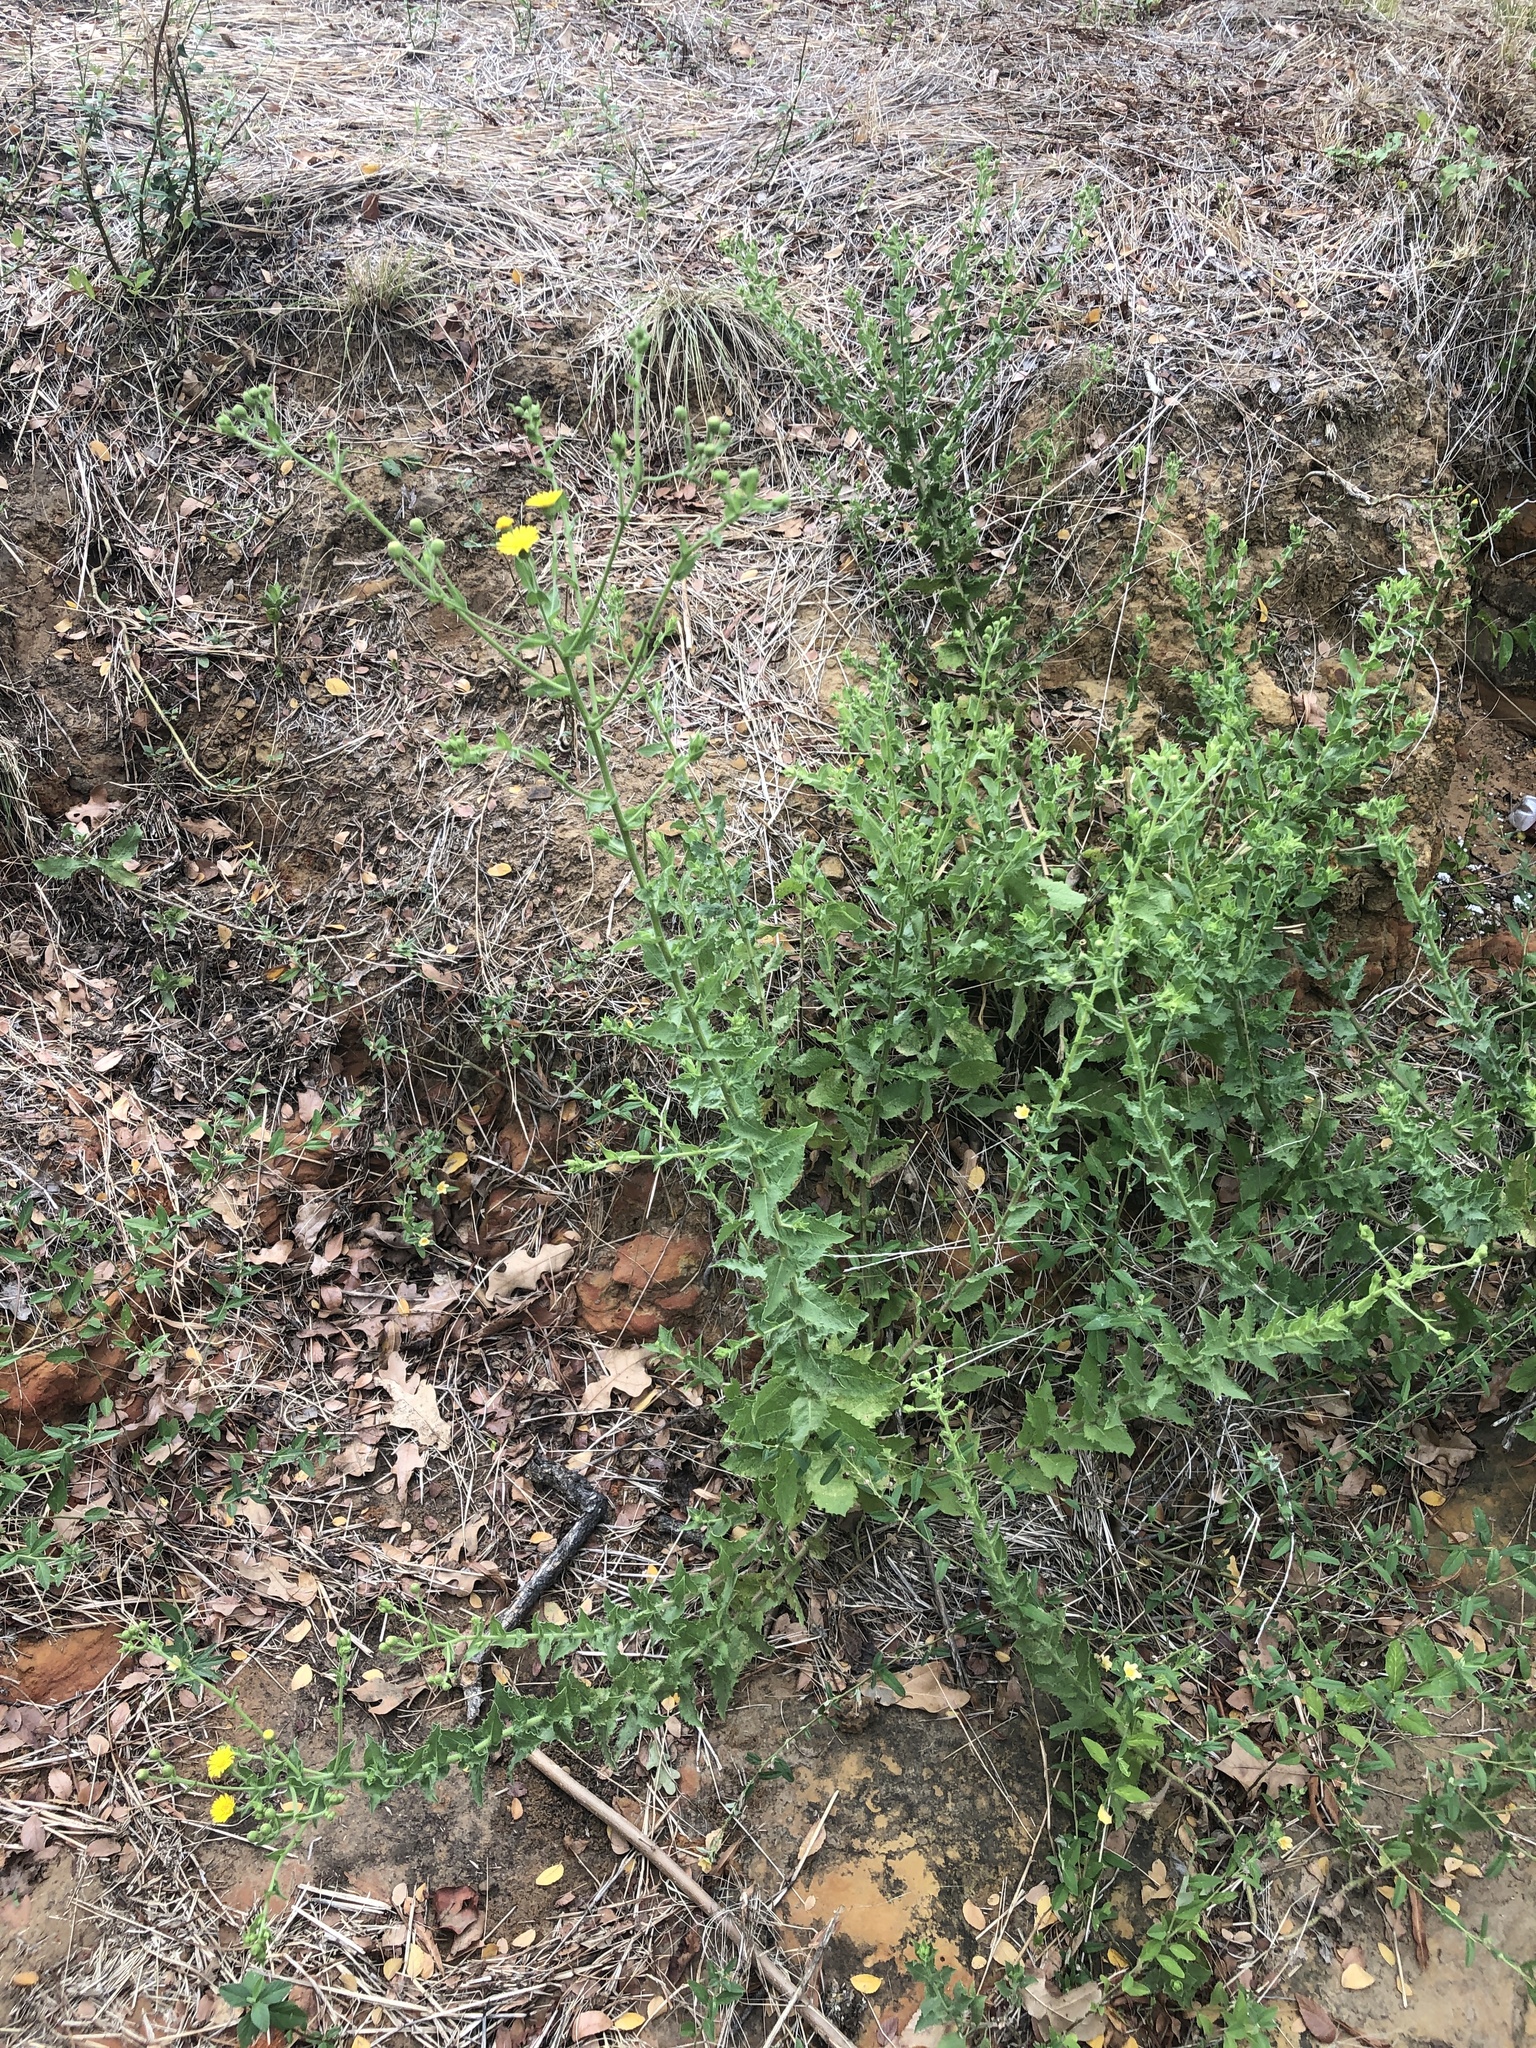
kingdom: Plantae
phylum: Tracheophyta
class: Magnoliopsida
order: Asterales
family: Asteraceae
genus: Heterotheca
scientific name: Heterotheca subaxillaris
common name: Camphorweed
